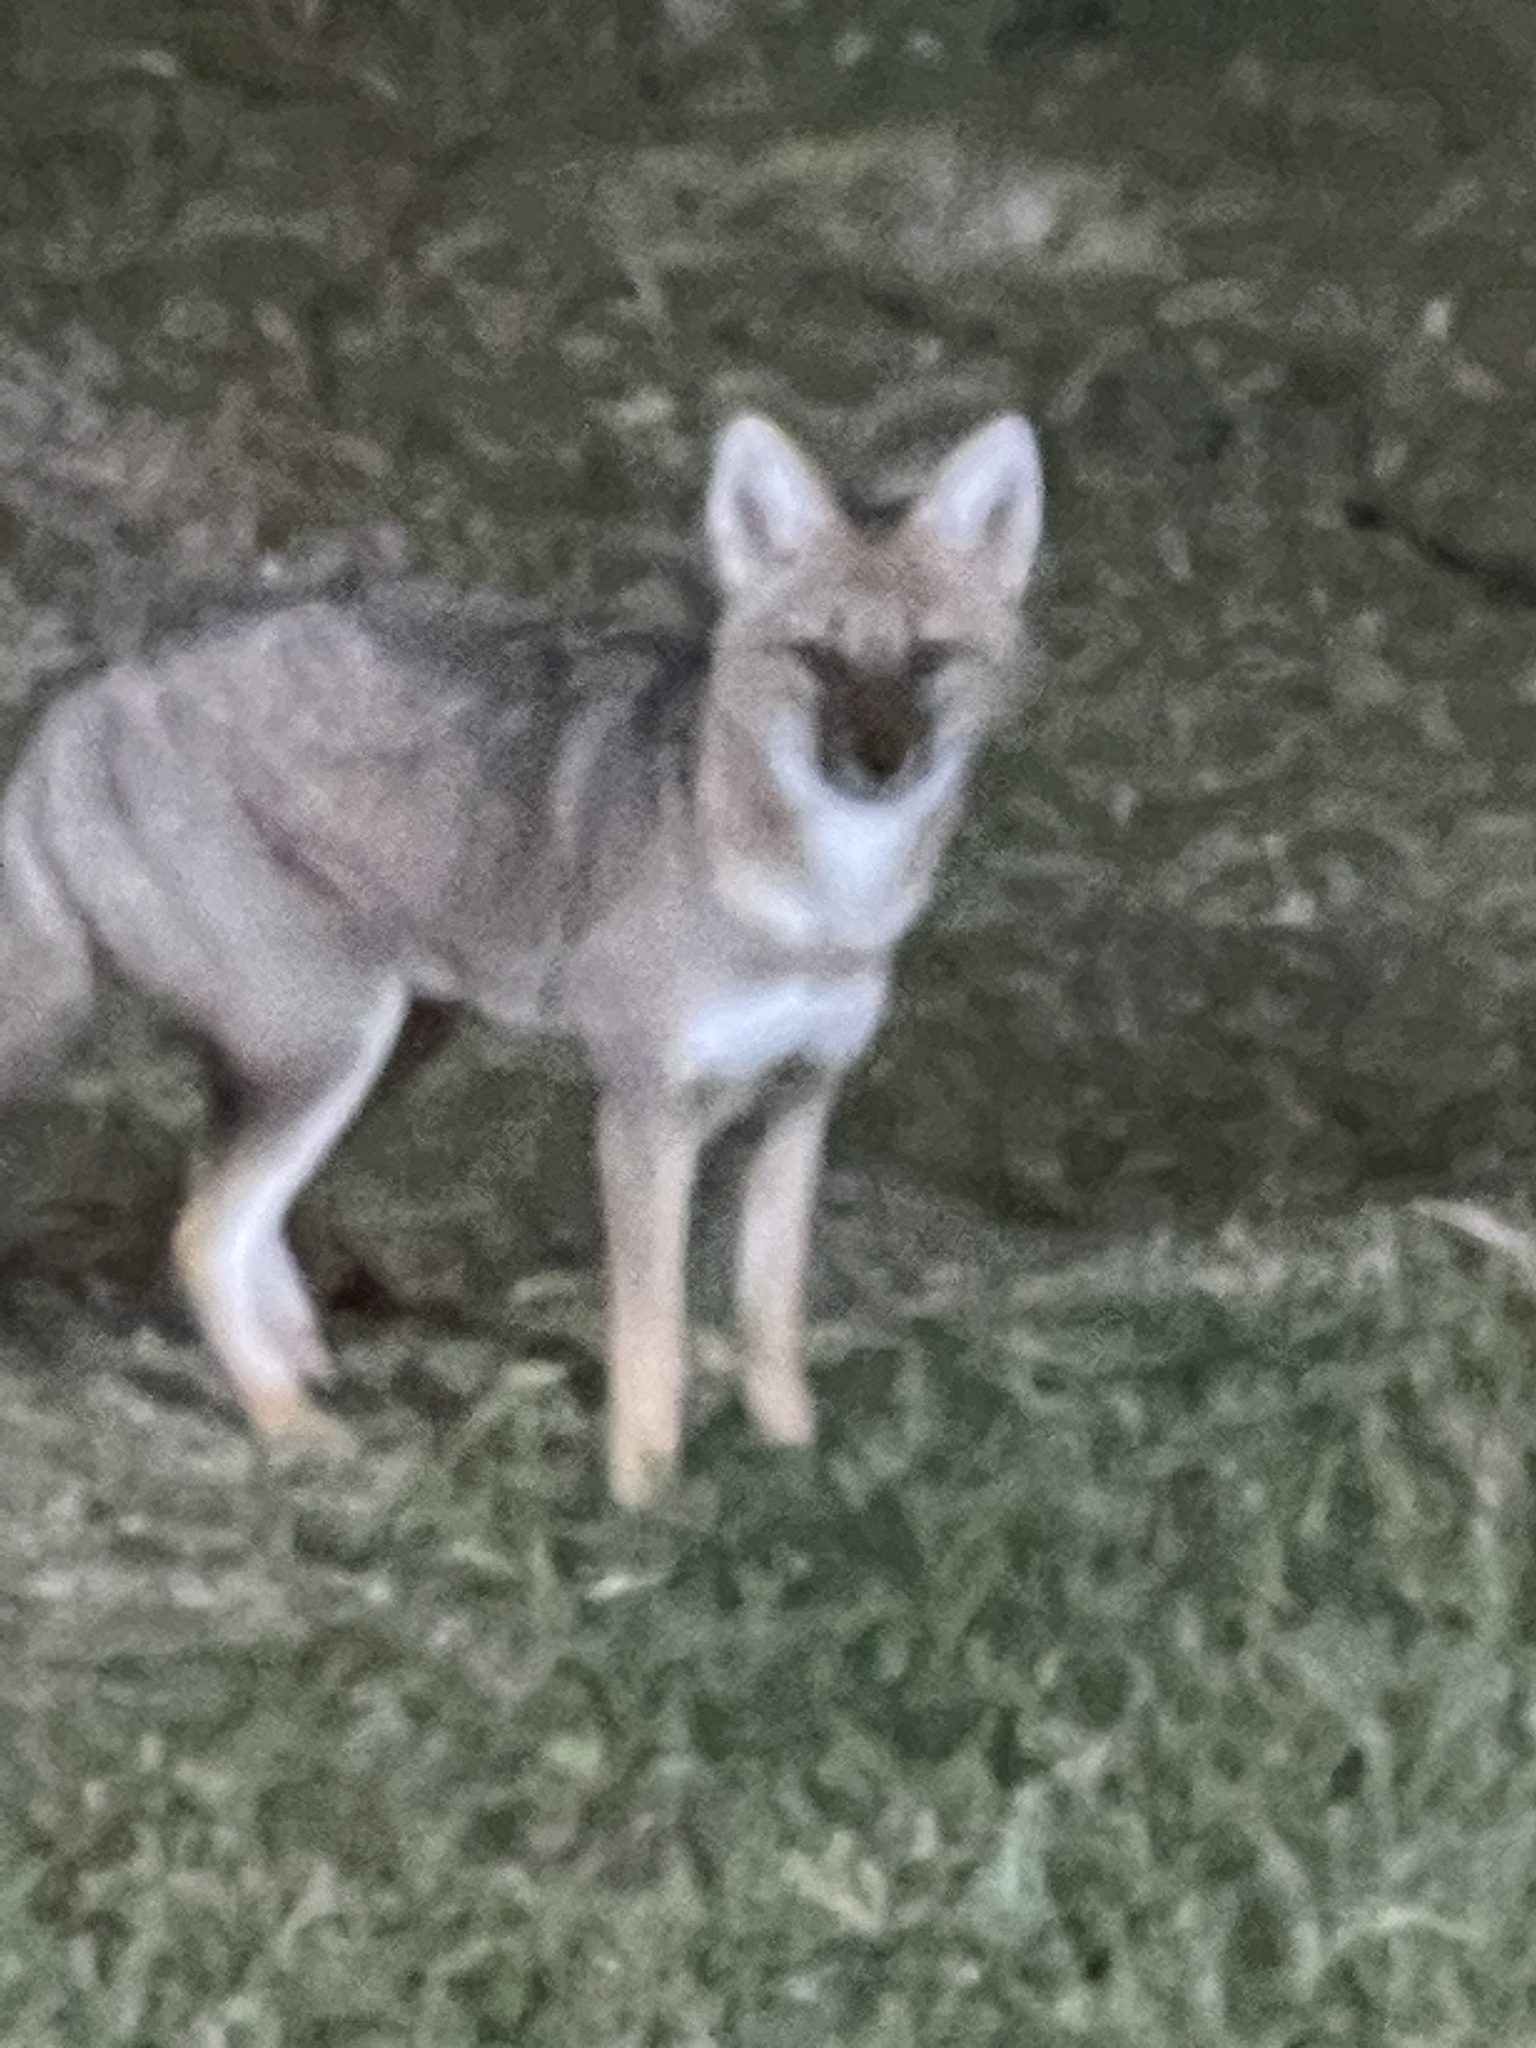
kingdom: Animalia
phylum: Chordata
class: Mammalia
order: Carnivora
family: Canidae
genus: Lycalopex
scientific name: Lycalopex gymnocercus
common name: Pampas fox
